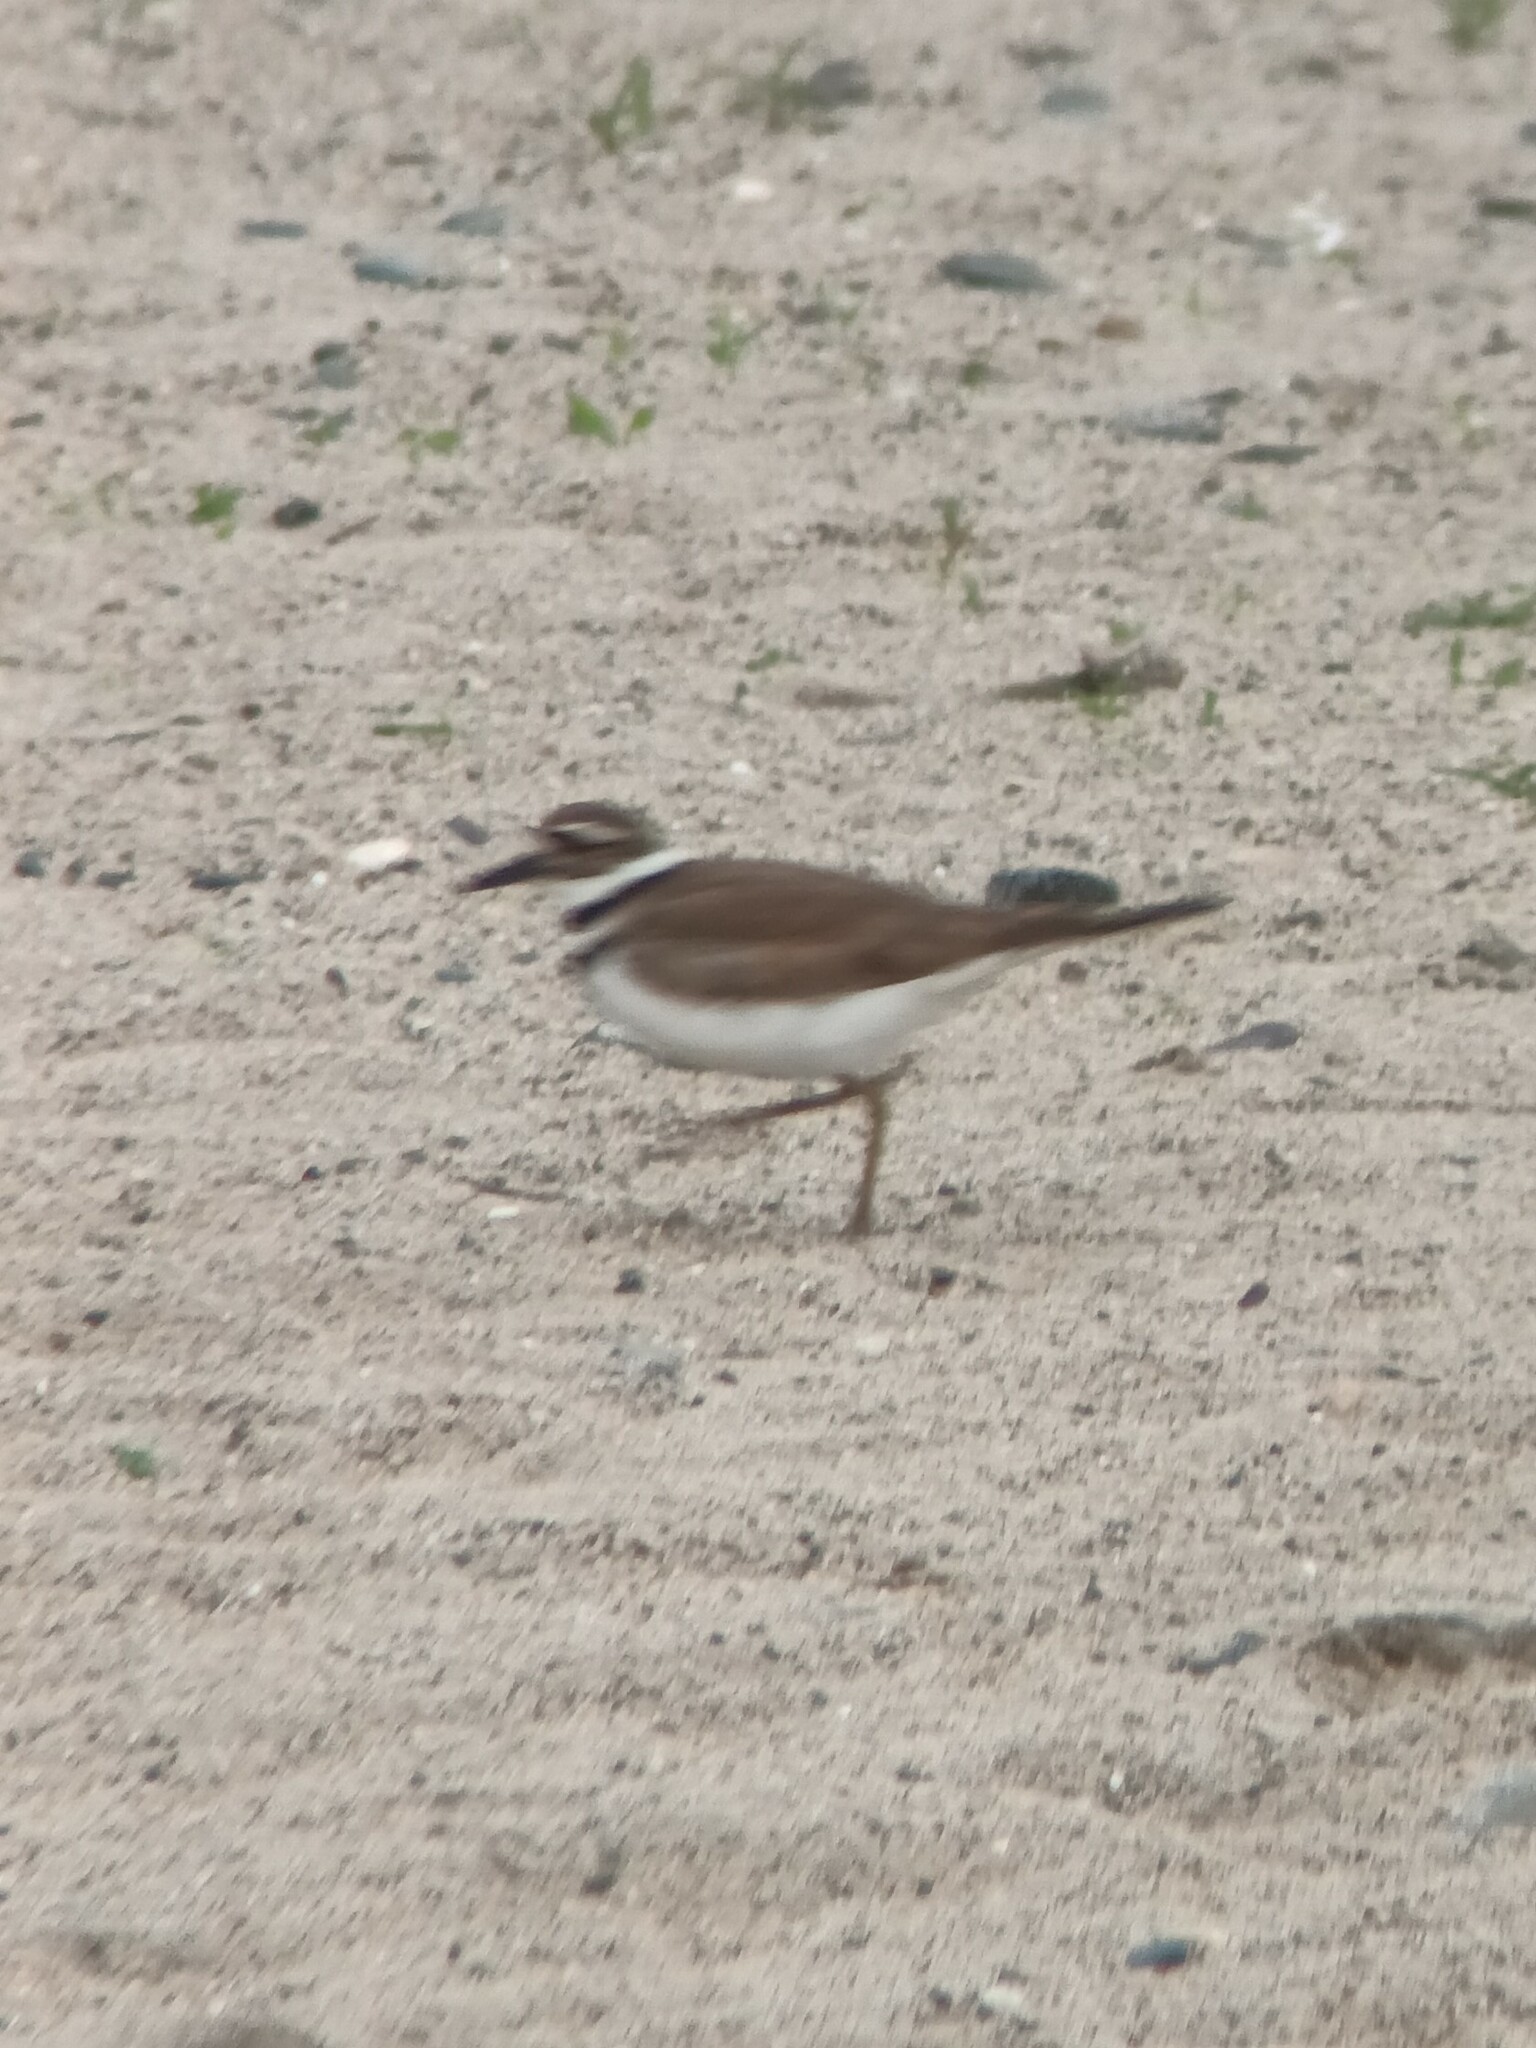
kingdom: Animalia
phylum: Chordata
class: Aves
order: Charadriiformes
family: Charadriidae
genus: Charadrius
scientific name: Charadrius vociferus
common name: Killdeer
